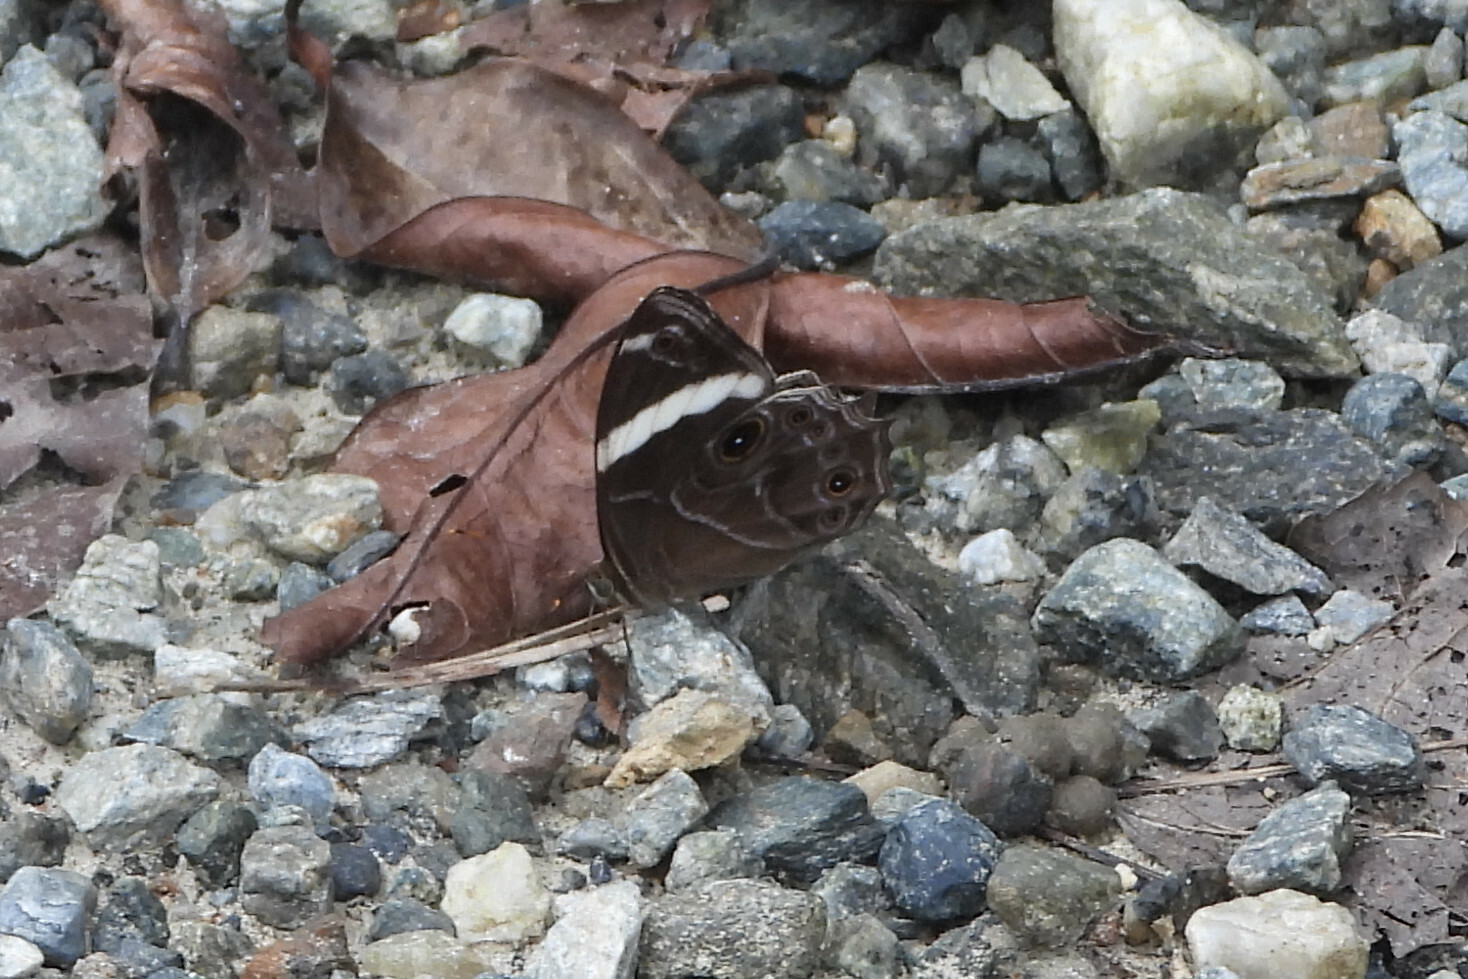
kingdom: Animalia
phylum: Arthropoda
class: Insecta
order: Lepidoptera
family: Nymphalidae
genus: Lethe
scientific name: Lethe confusa
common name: Banded treebrown
